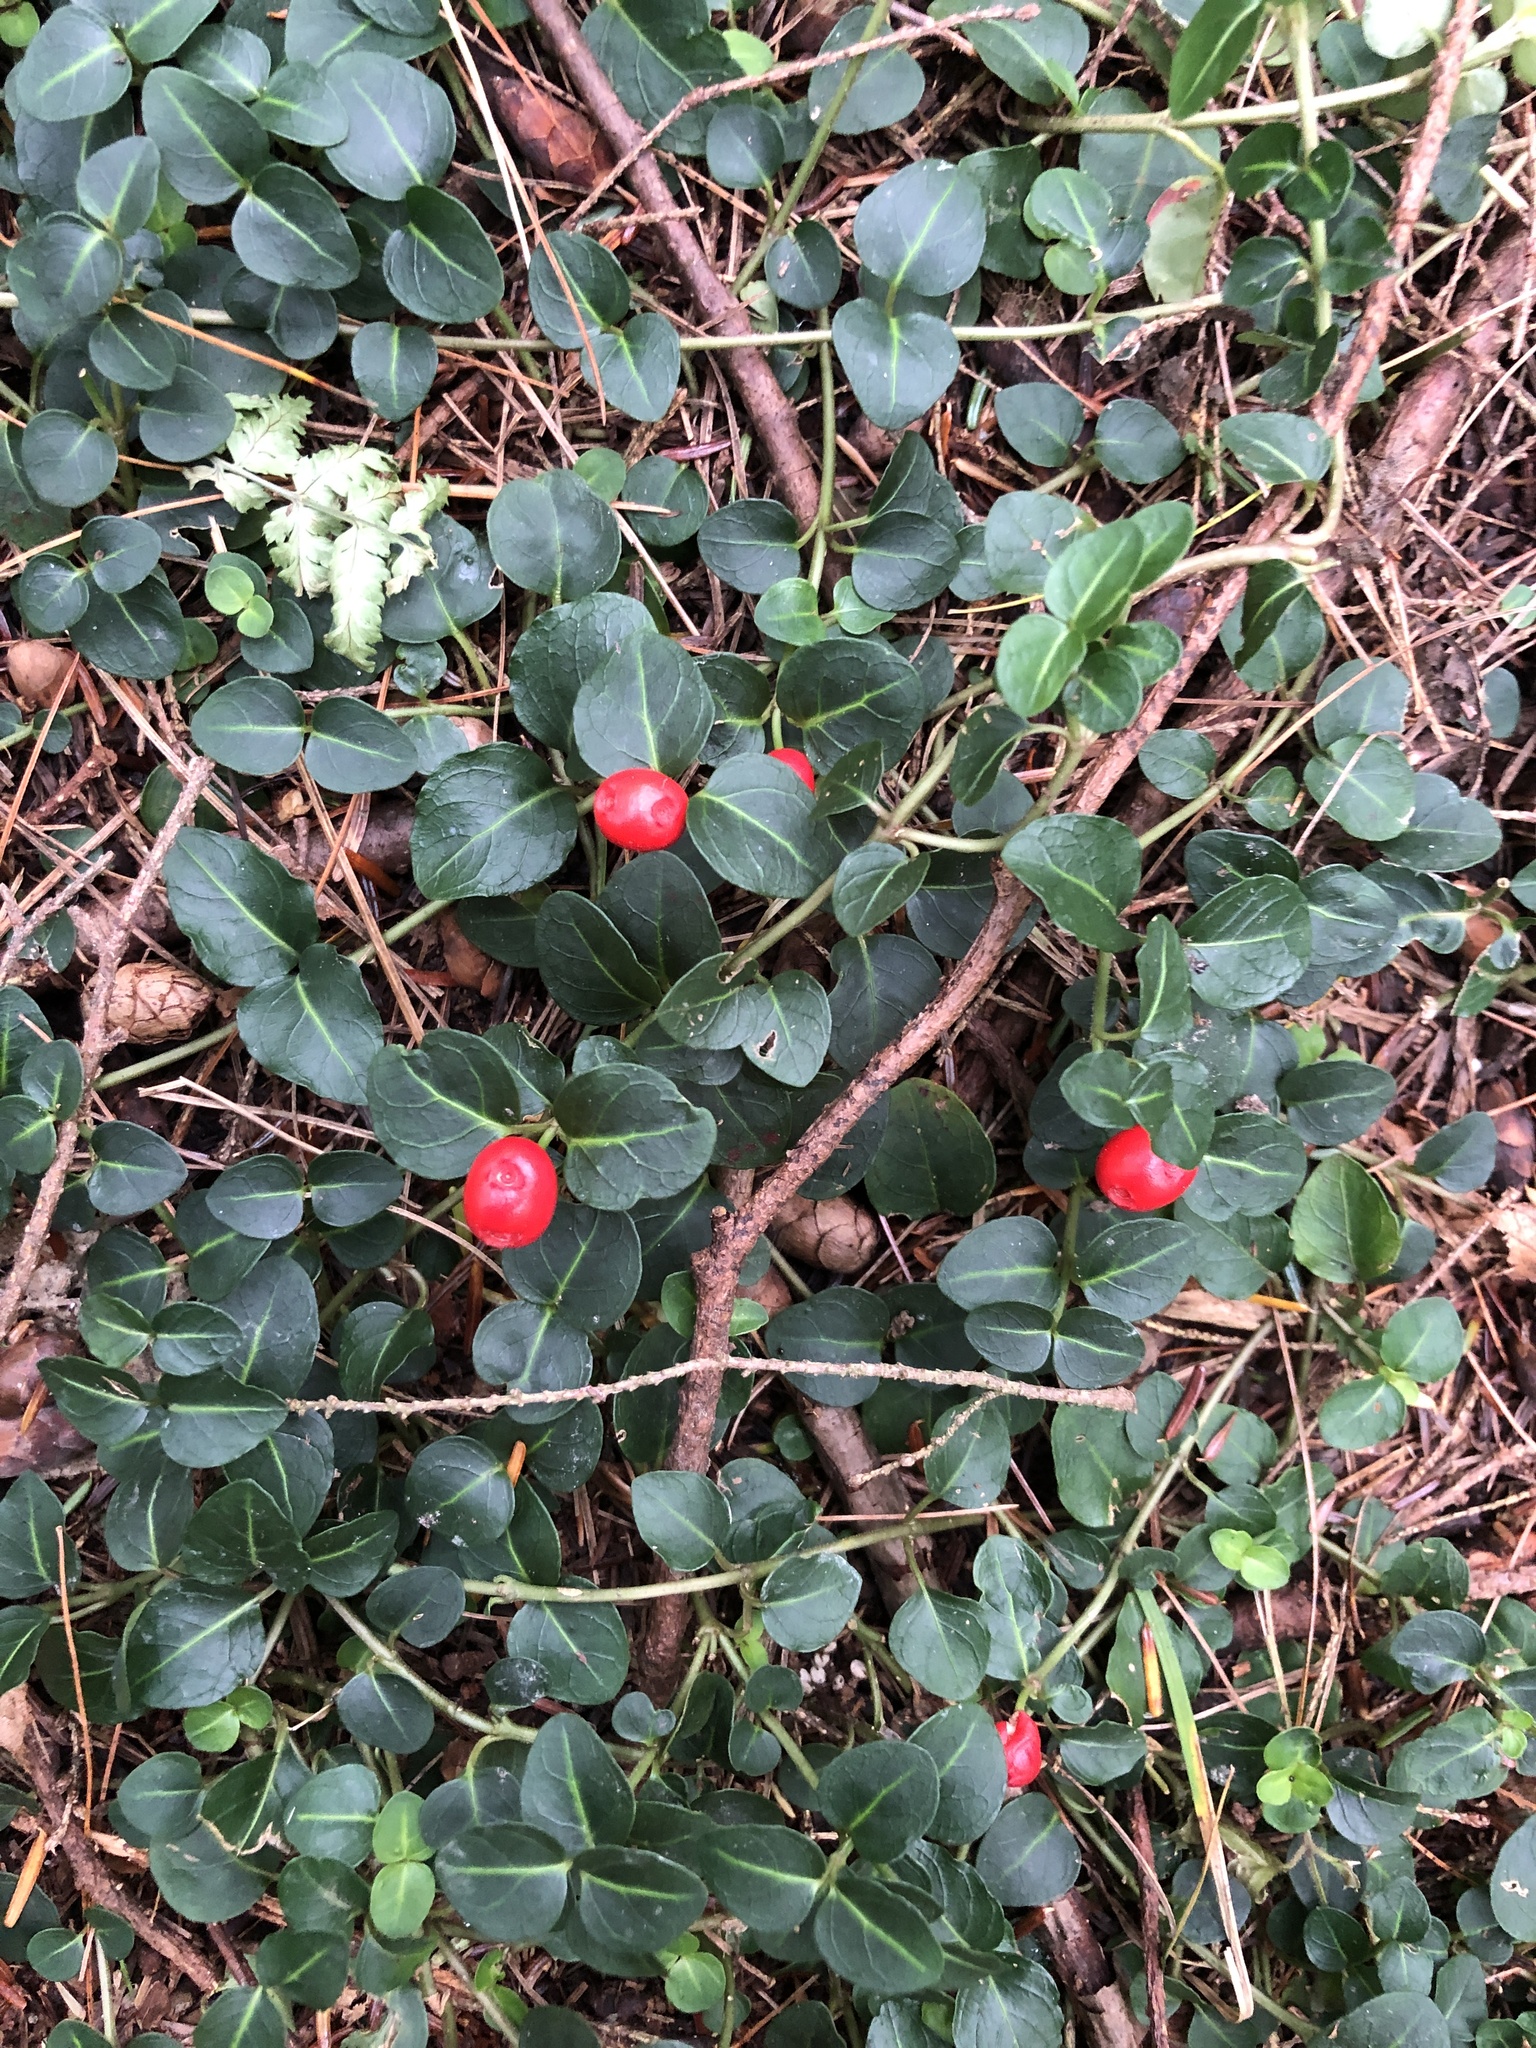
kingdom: Plantae
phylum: Tracheophyta
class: Magnoliopsida
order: Gentianales
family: Rubiaceae
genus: Mitchella
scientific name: Mitchella repens
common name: Partridge-berry
